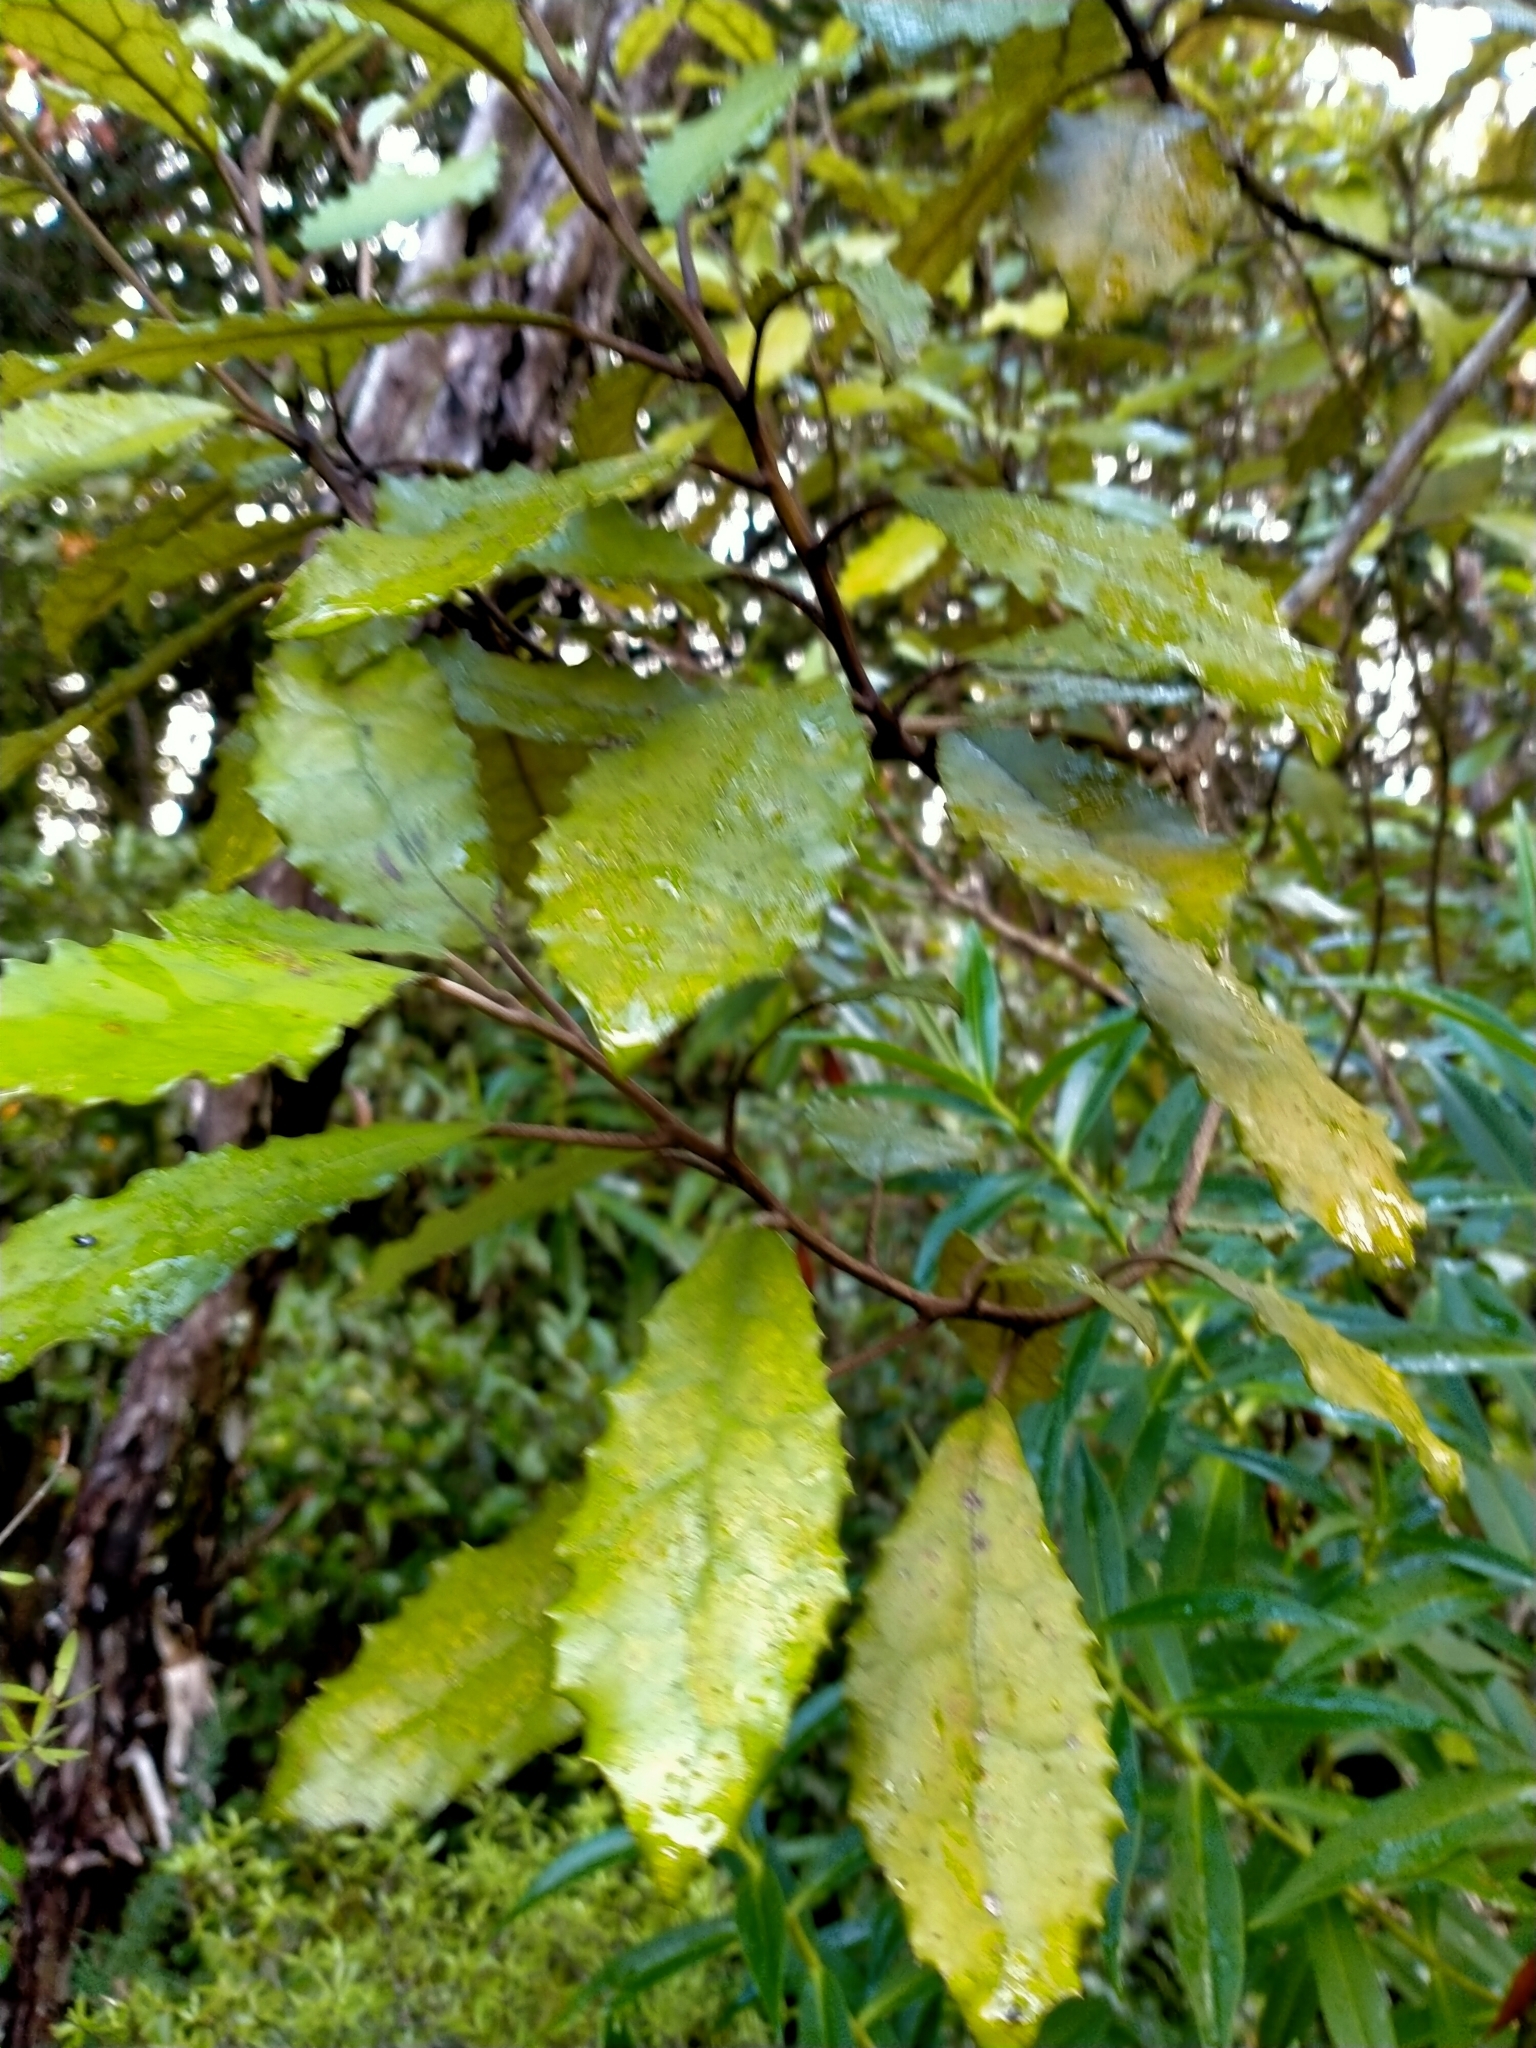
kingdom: Plantae
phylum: Tracheophyta
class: Magnoliopsida
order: Asterales
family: Asteraceae
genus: Olearia
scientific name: Olearia rani
